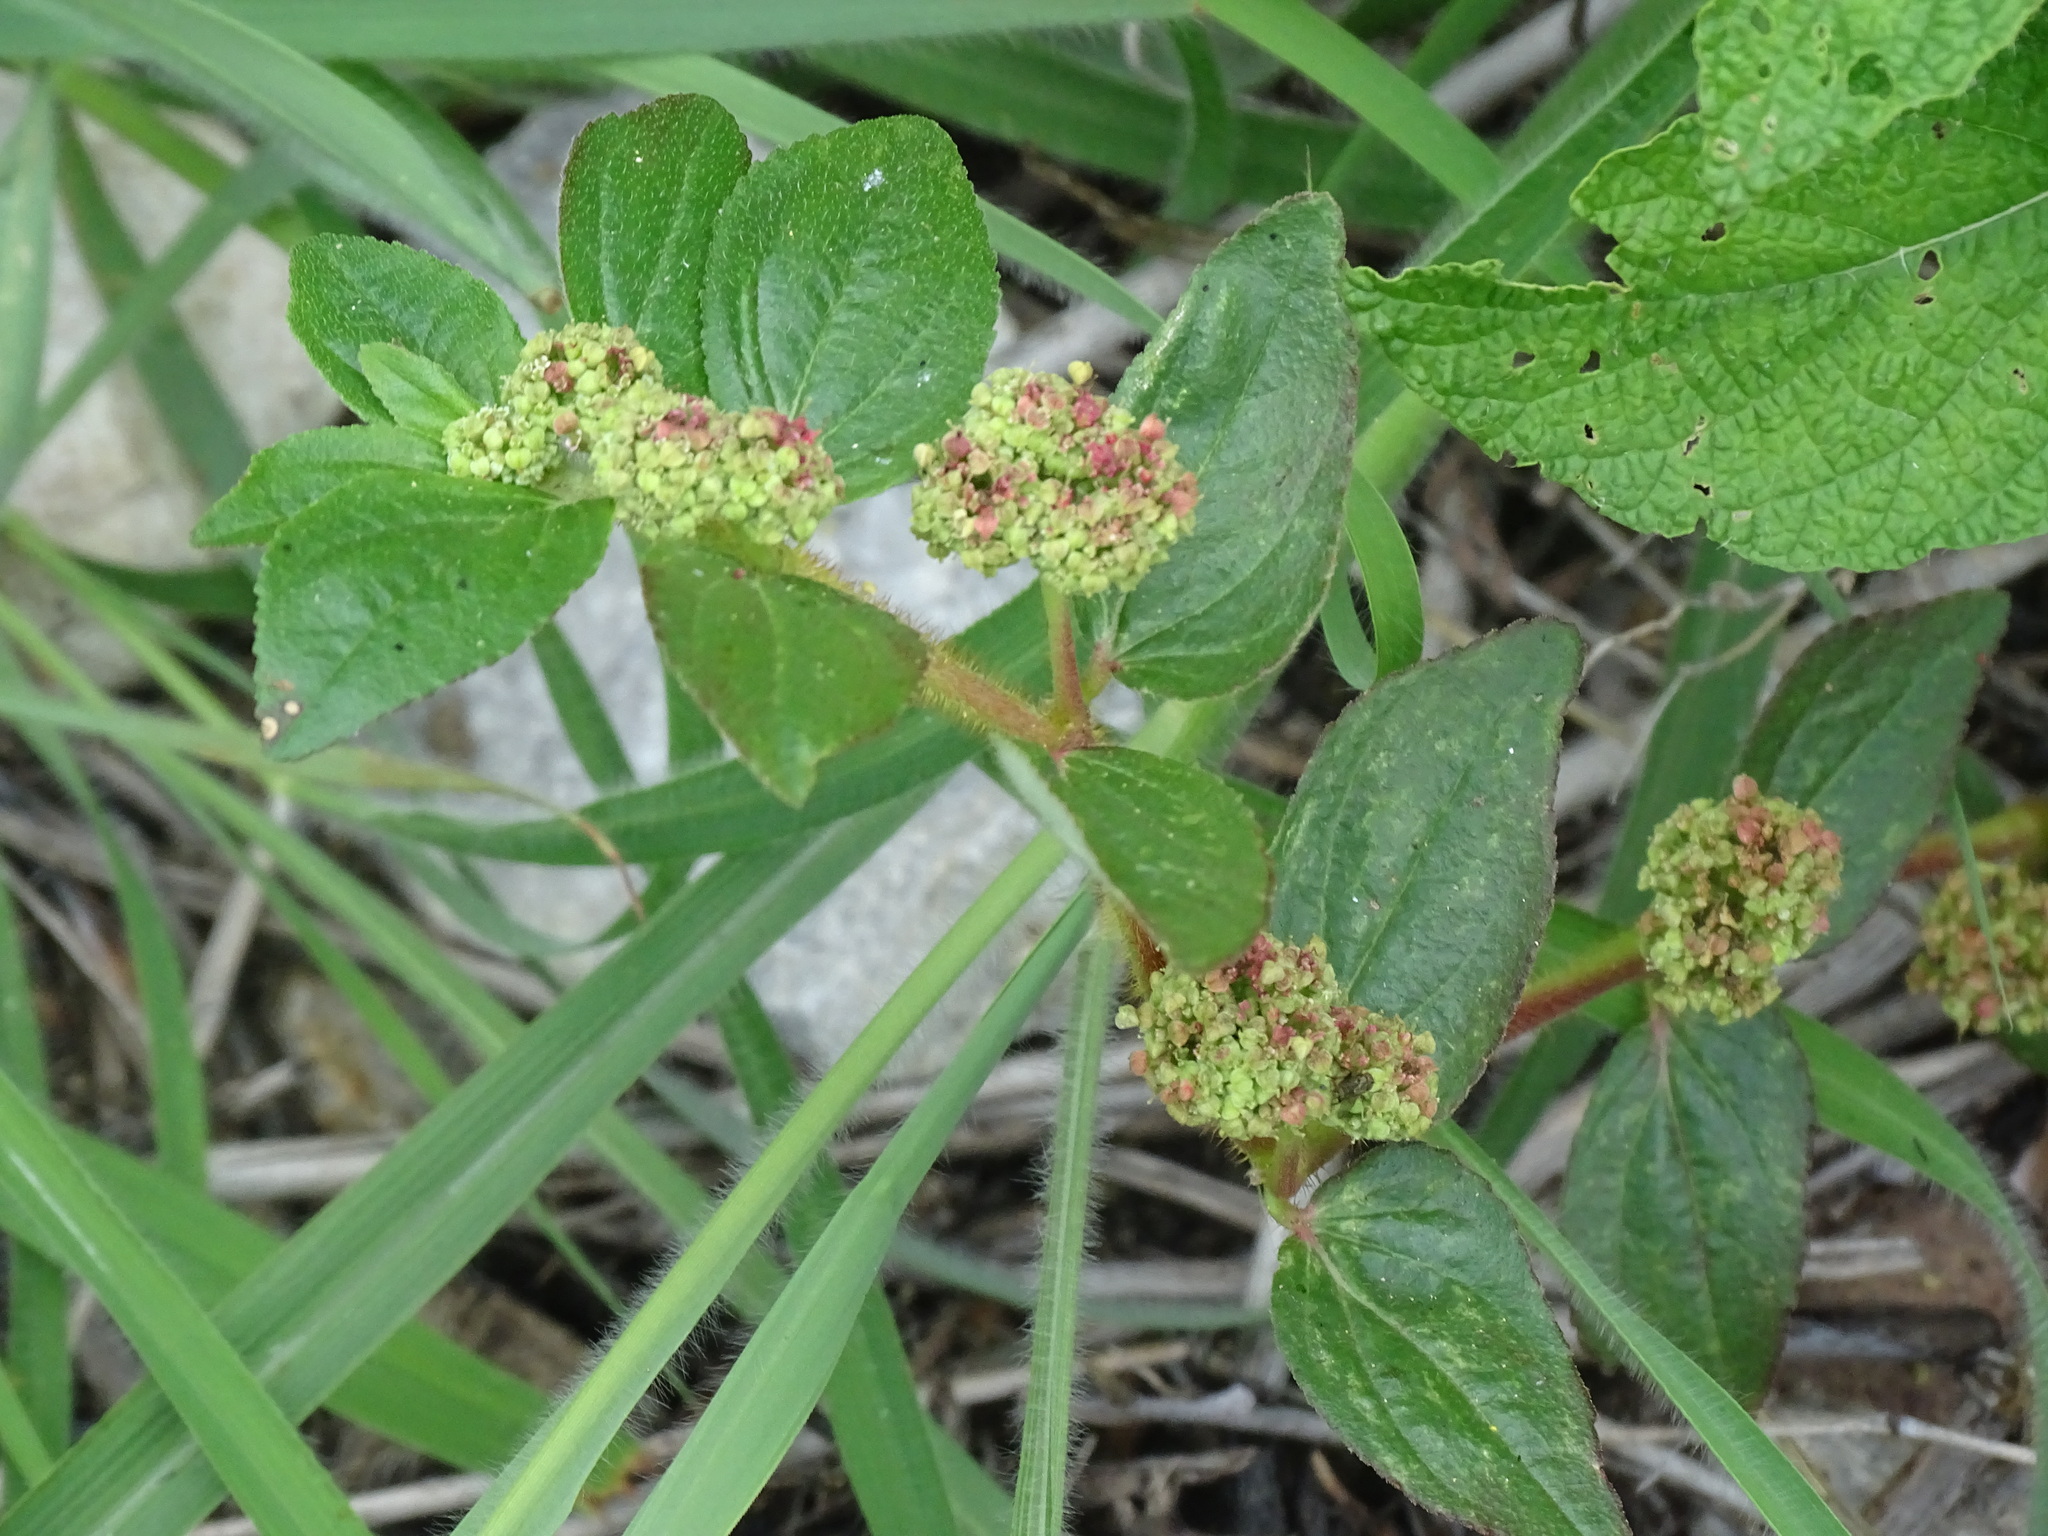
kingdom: Plantae
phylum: Tracheophyta
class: Magnoliopsida
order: Malpighiales
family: Euphorbiaceae
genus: Euphorbia
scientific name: Euphorbia hirta
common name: Pillpod sandmat
